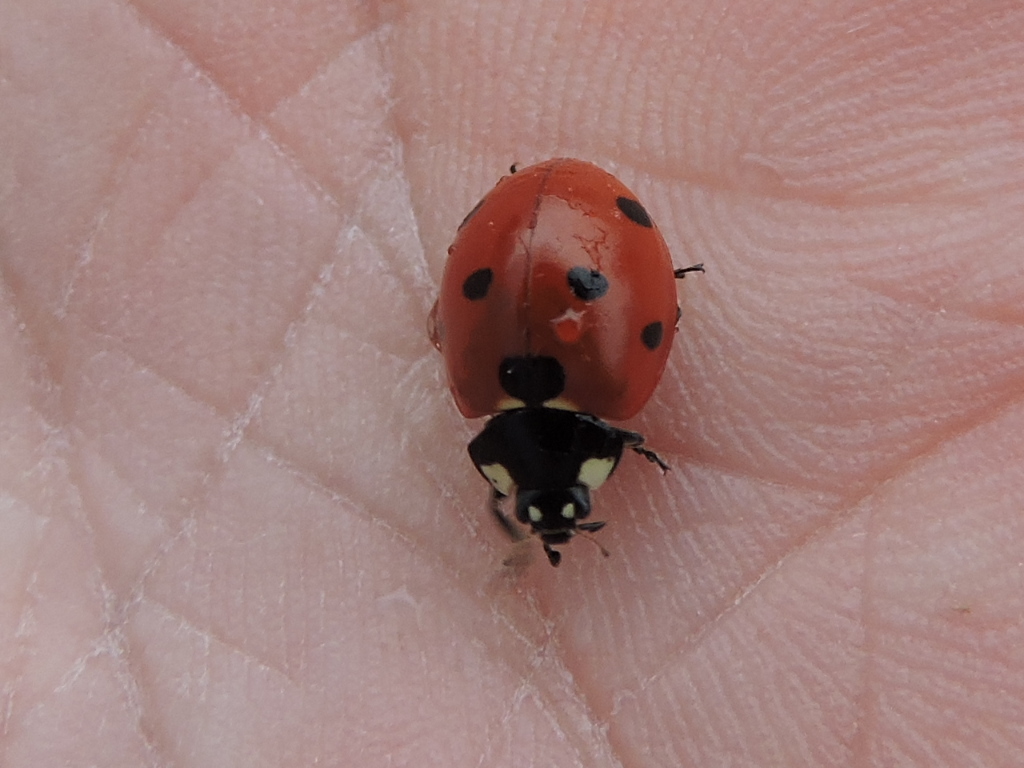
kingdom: Animalia
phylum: Arthropoda
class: Insecta
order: Coleoptera
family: Coccinellidae
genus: Coccinella
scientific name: Coccinella septempunctata
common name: Sevenspotted lady beetle
